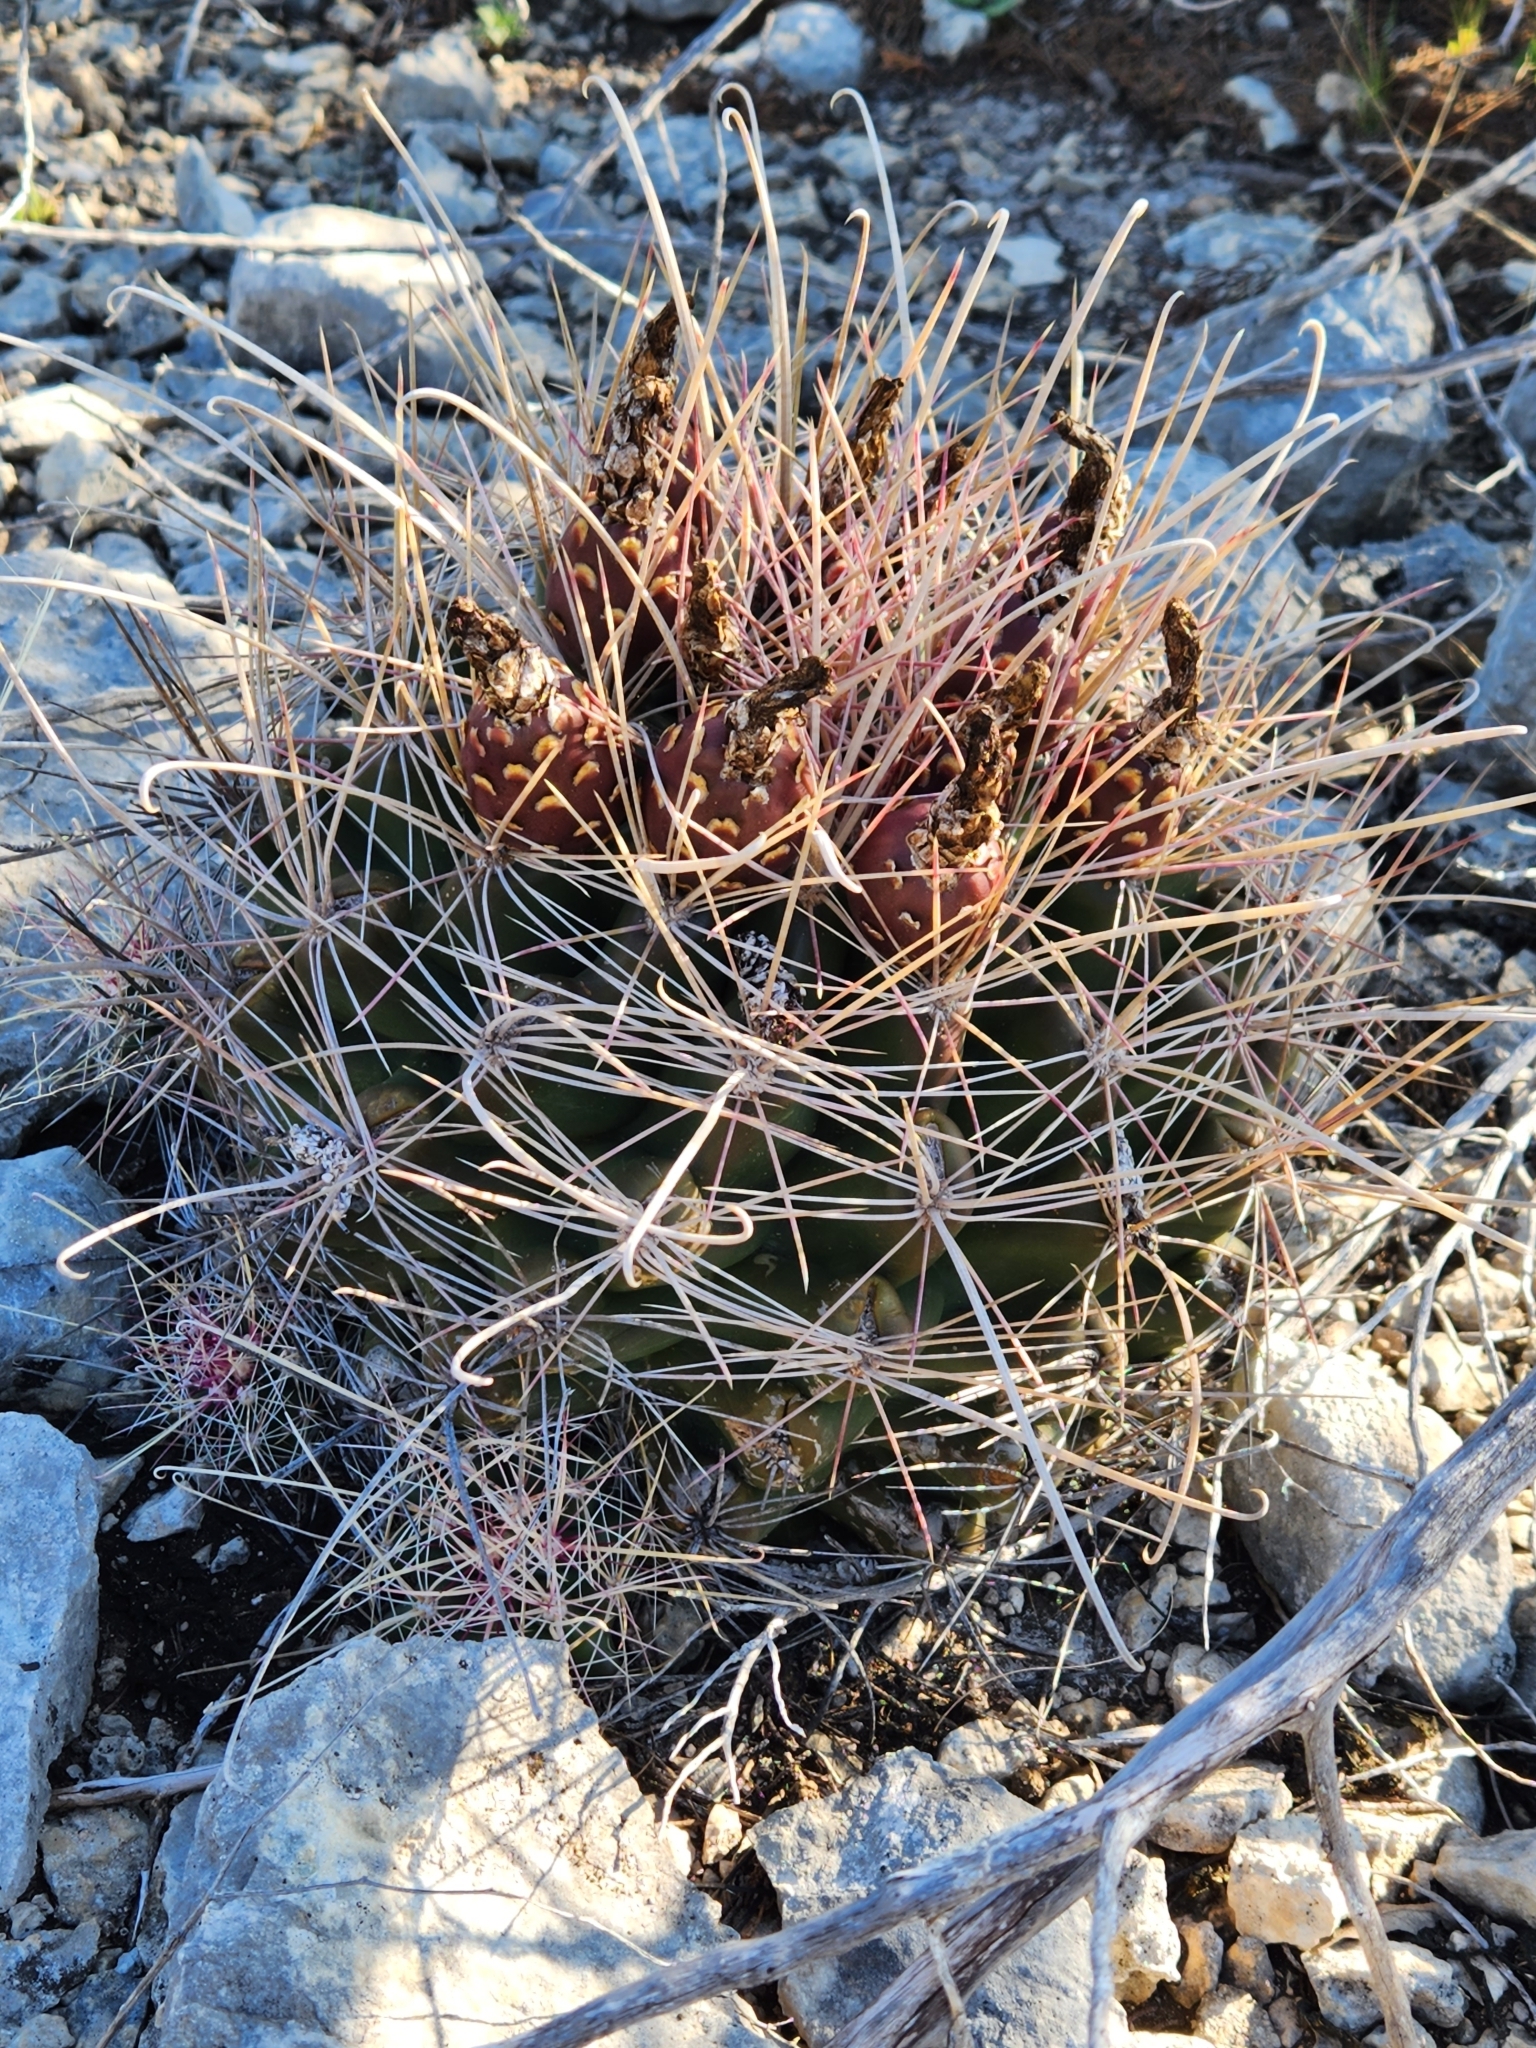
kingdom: Plantae
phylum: Tracheophyta
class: Magnoliopsida
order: Caryophyllales
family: Cactaceae
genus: Bisnaga
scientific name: Bisnaga hamatacantha
